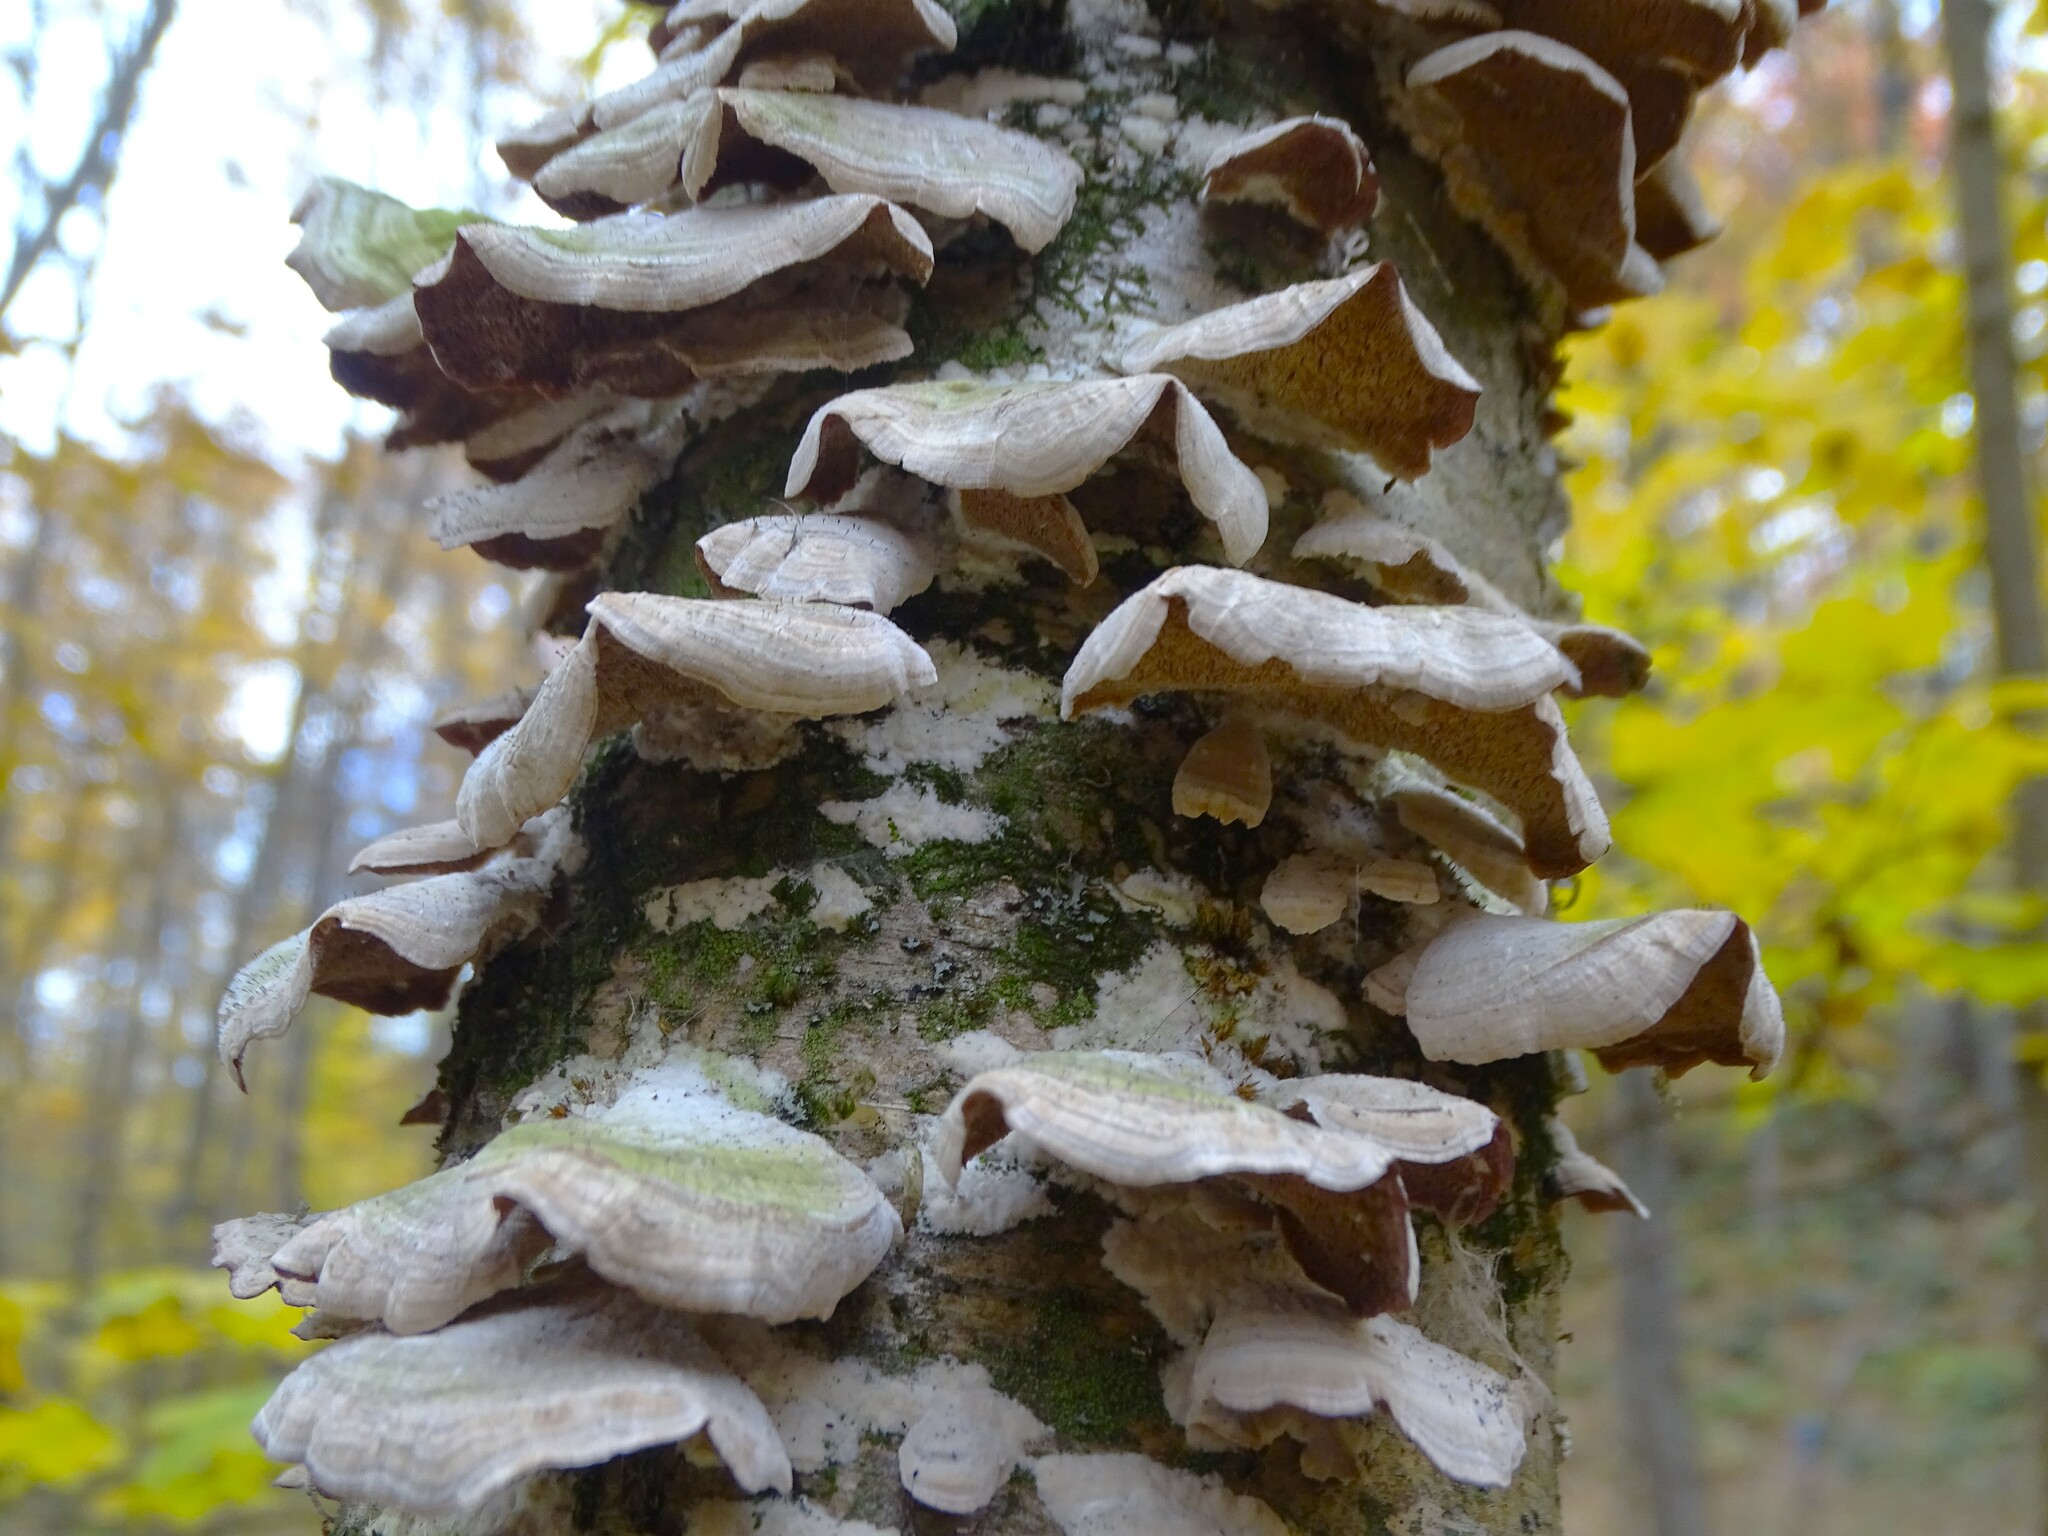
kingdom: Fungi
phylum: Basidiomycota
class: Agaricomycetes
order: Hymenochaetales
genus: Trichaptum
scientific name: Trichaptum biforme
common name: Violet-toothed polypore
